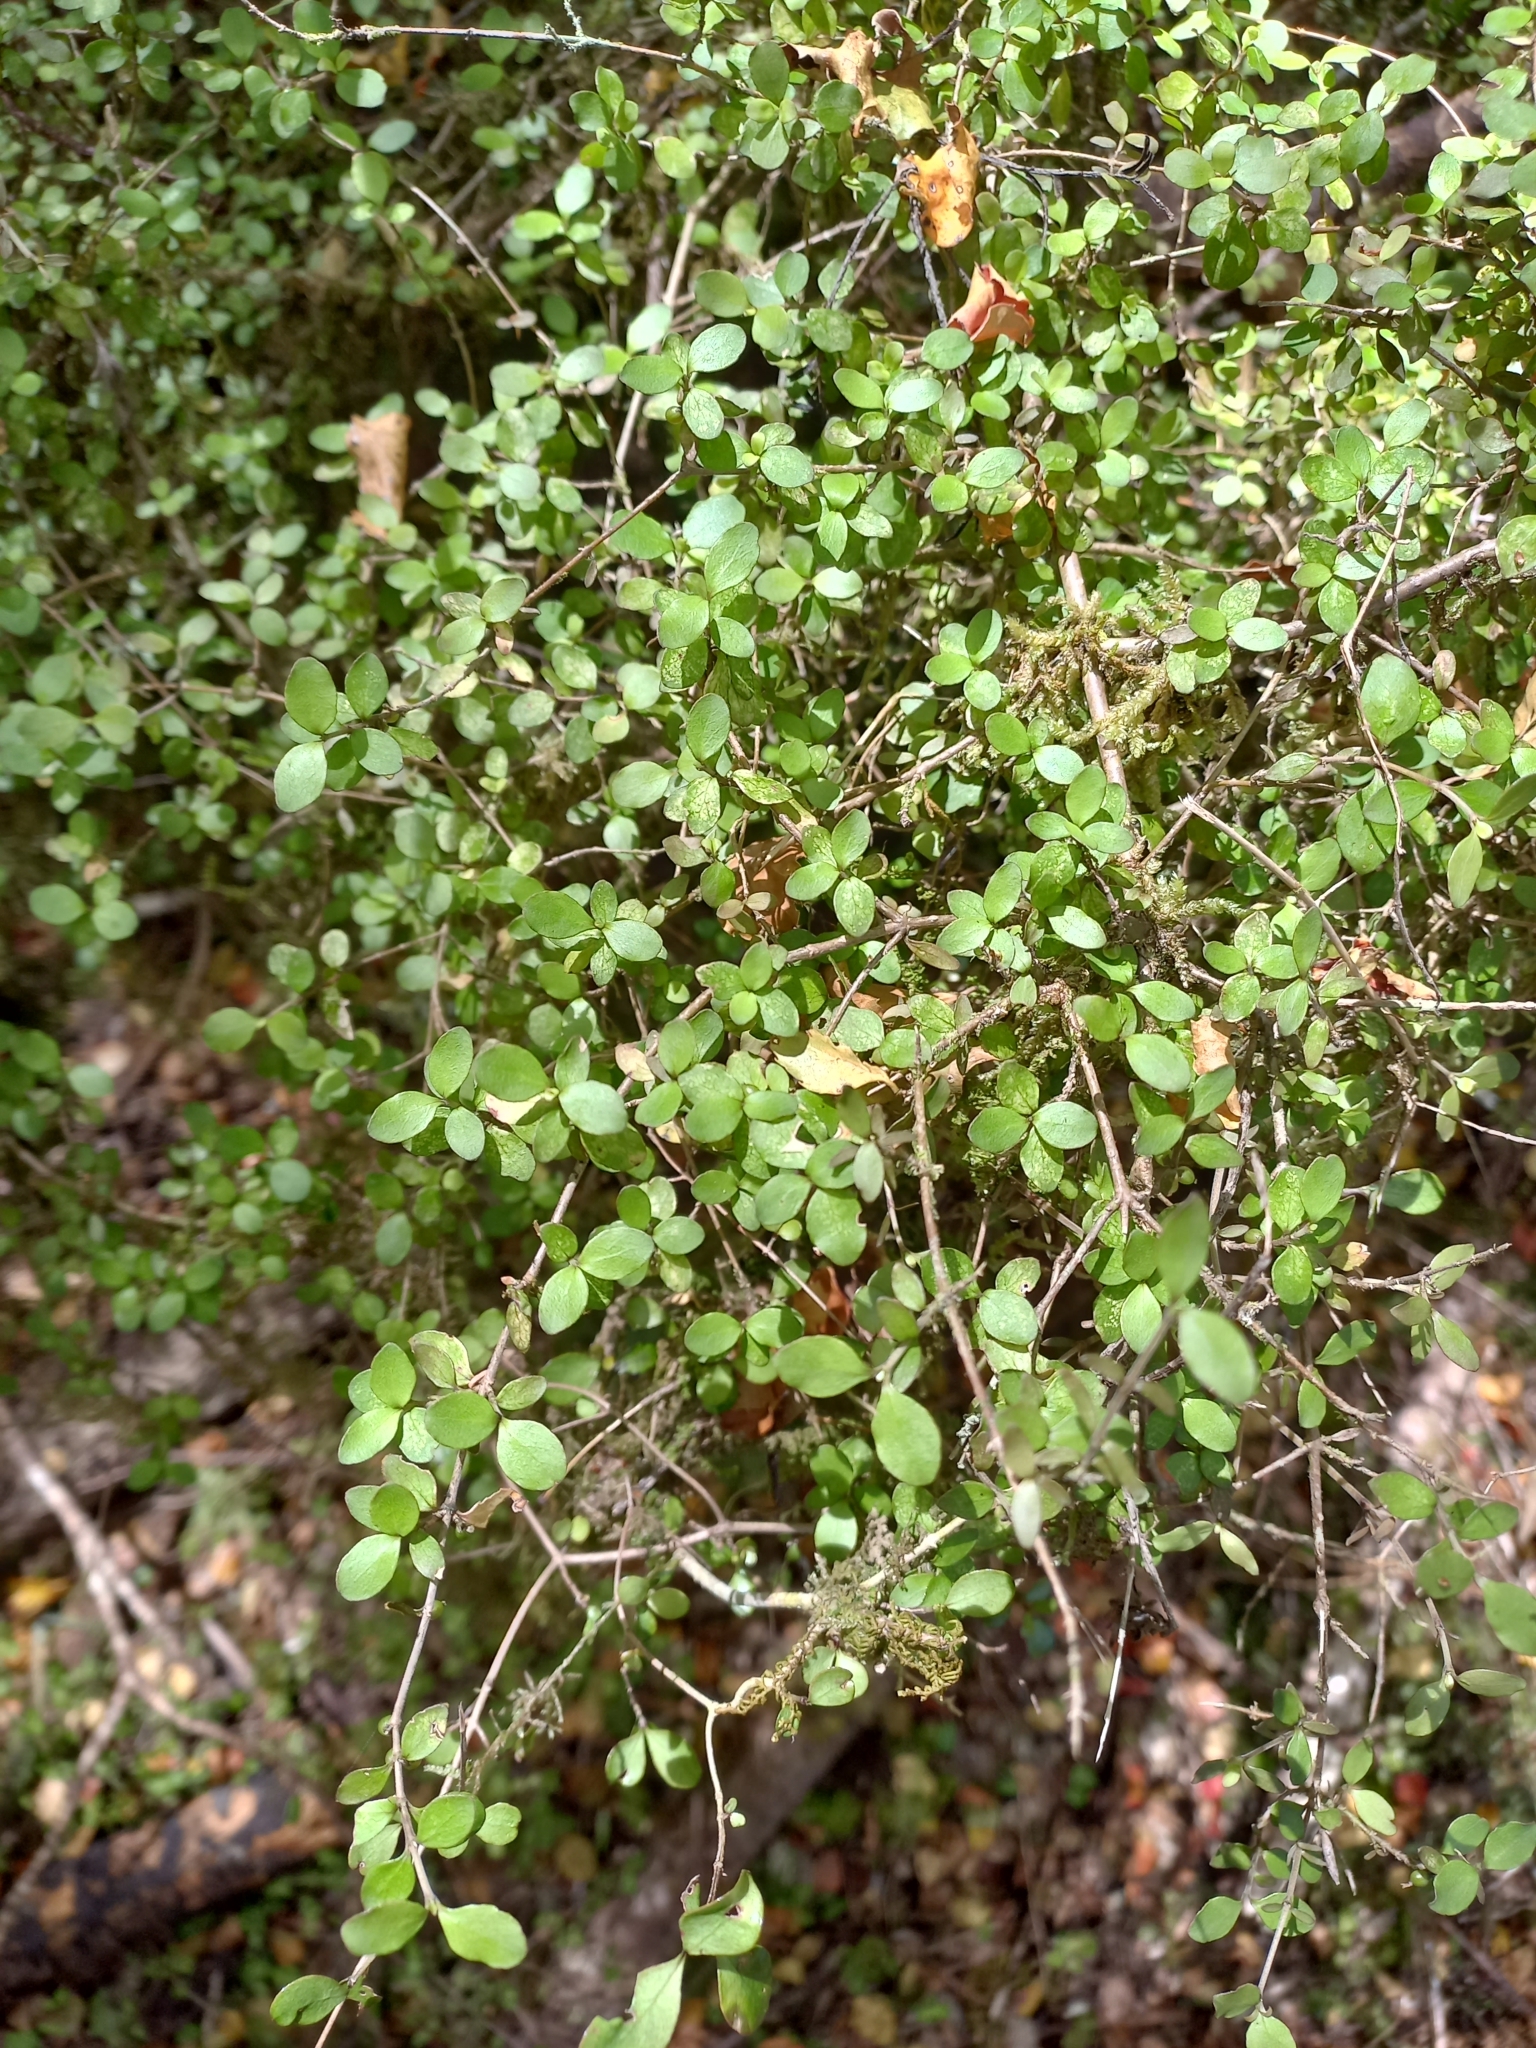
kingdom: Plantae
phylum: Tracheophyta
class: Magnoliopsida
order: Gentianales
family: Rubiaceae
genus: Coprosma
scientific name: Coprosma rhamnoides
